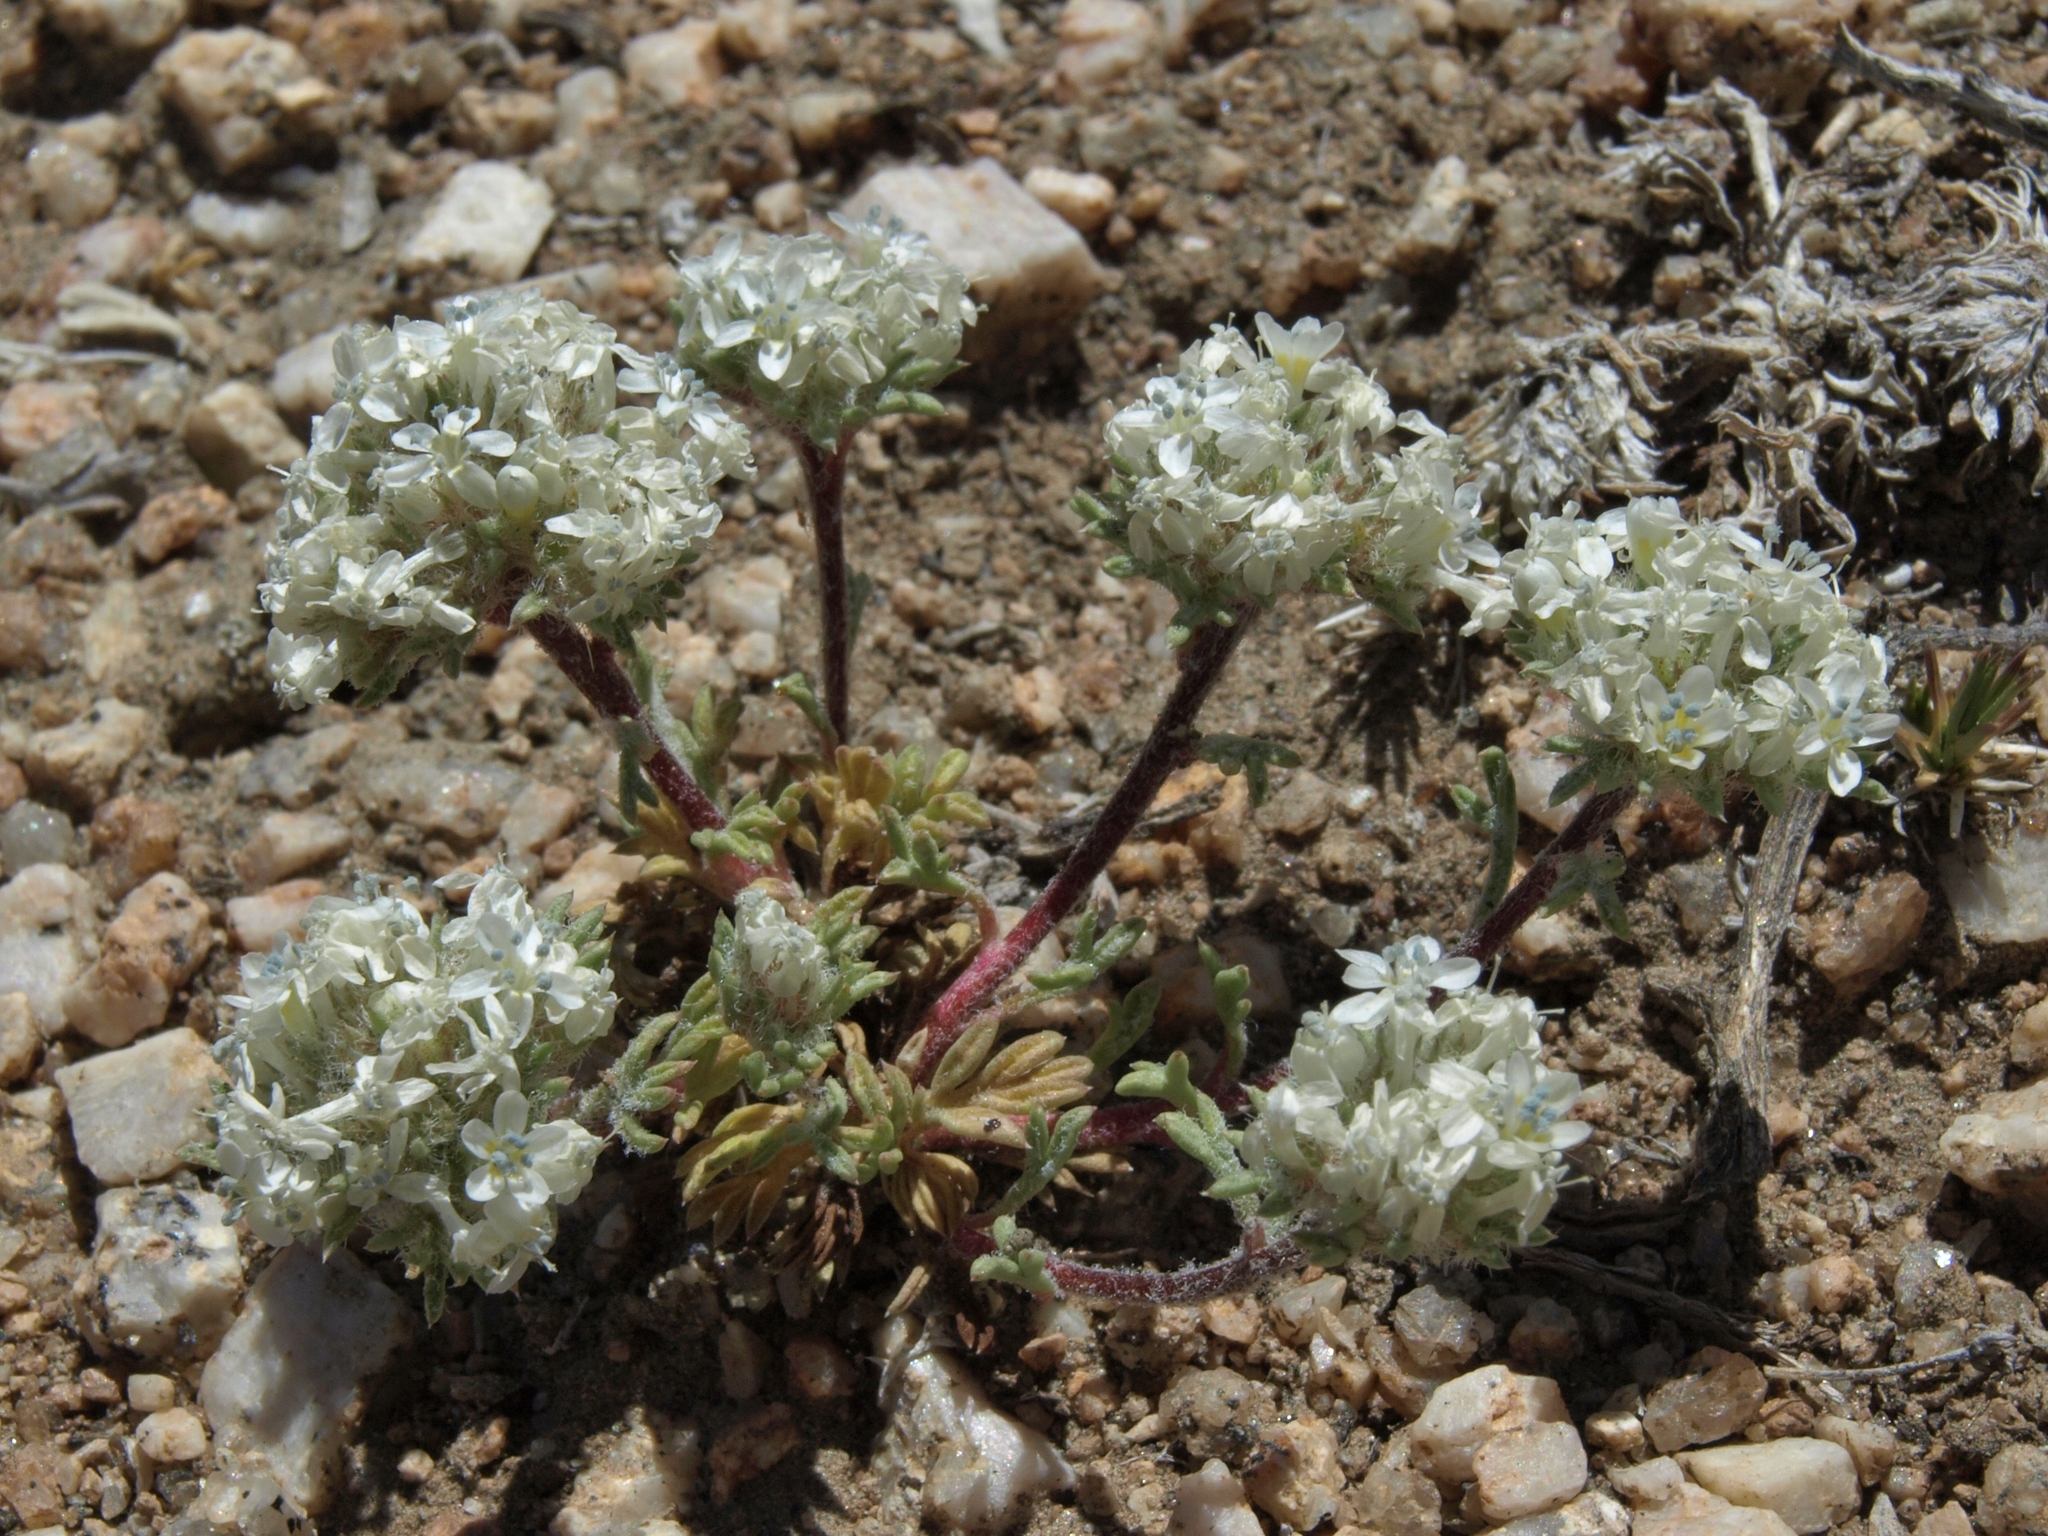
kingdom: Plantae
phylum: Tracheophyta
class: Magnoliopsida
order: Ericales
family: Polemoniaceae
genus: Ipomopsis
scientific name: Ipomopsis congesta
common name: Ball-head gilia
